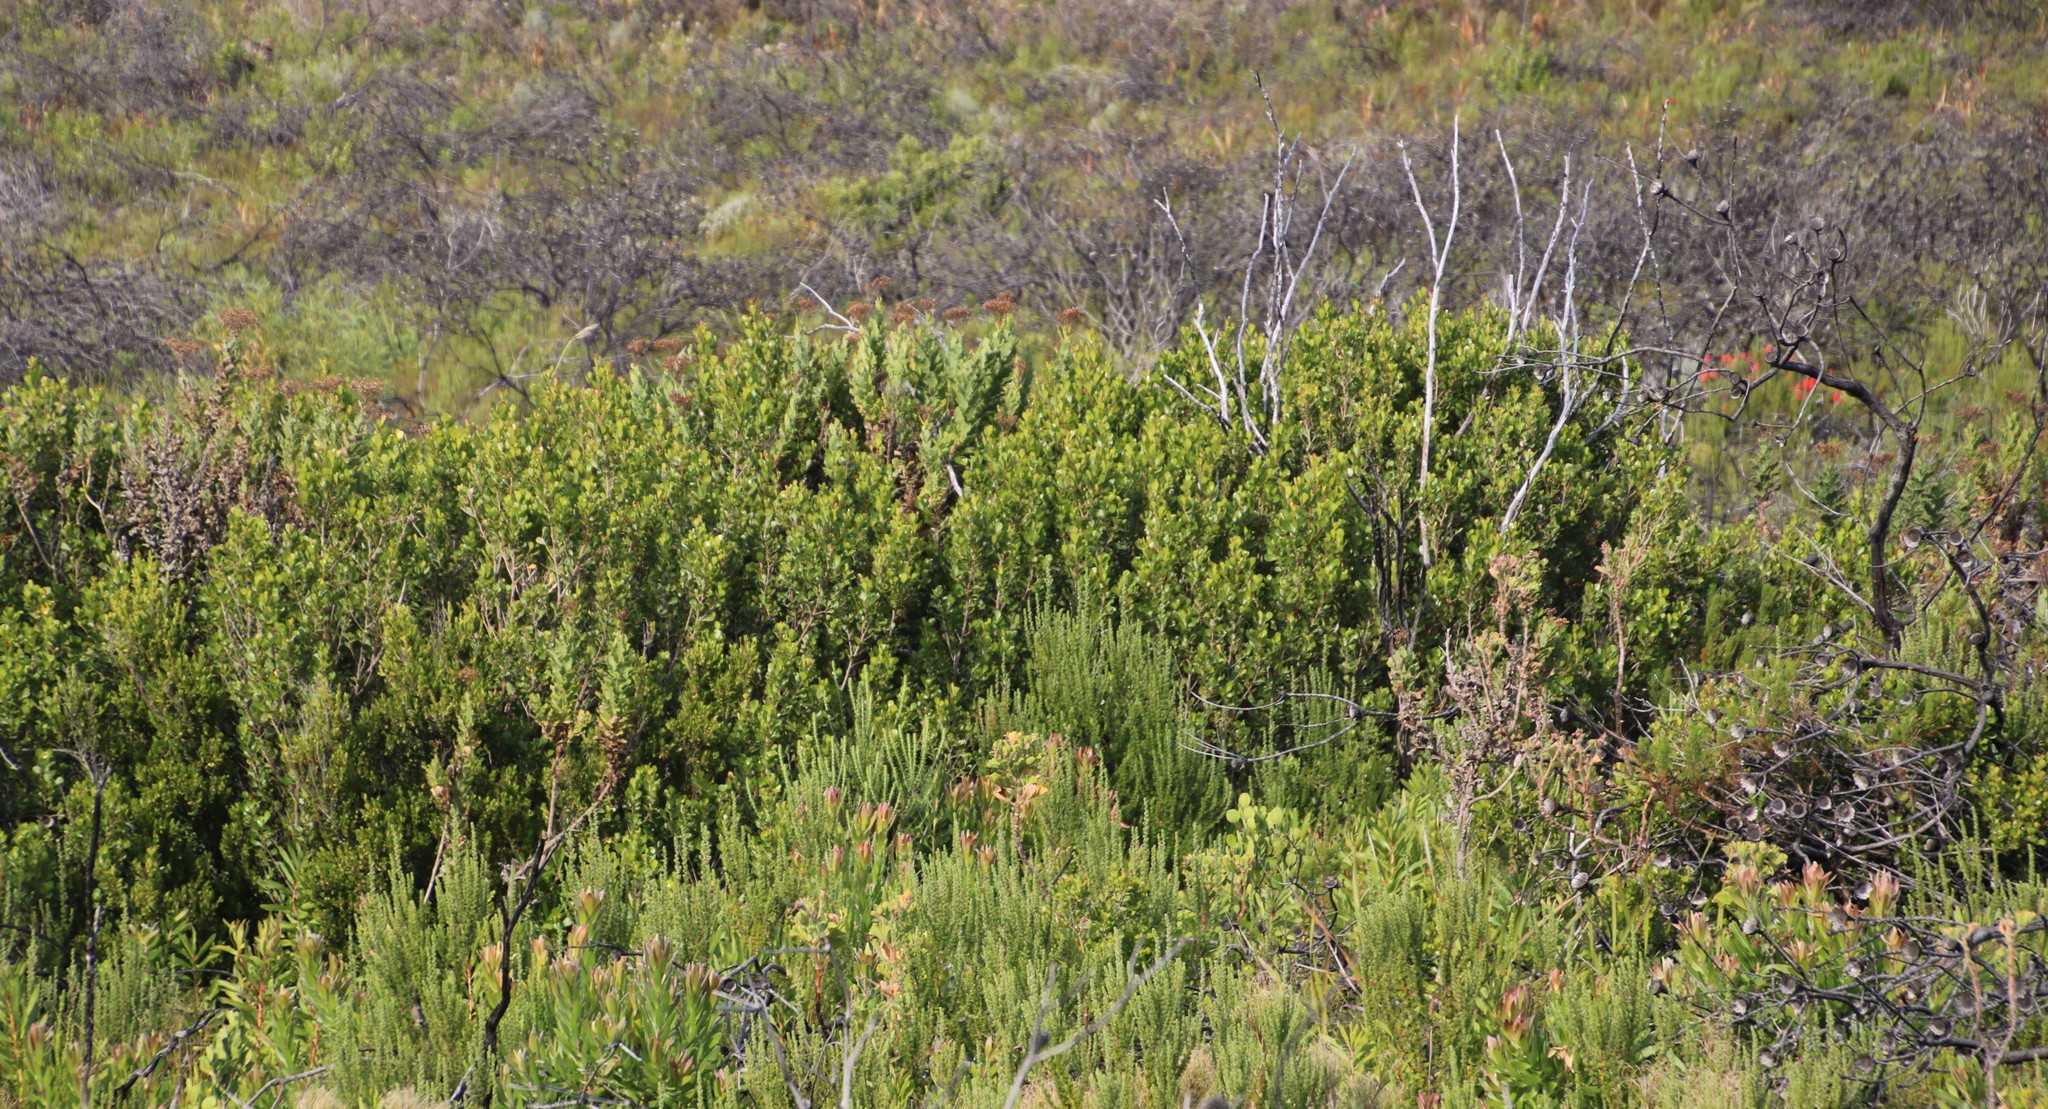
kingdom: Plantae
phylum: Tracheophyta
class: Magnoliopsida
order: Asterales
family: Asteraceae
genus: Senecio
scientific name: Senecio rigidus
